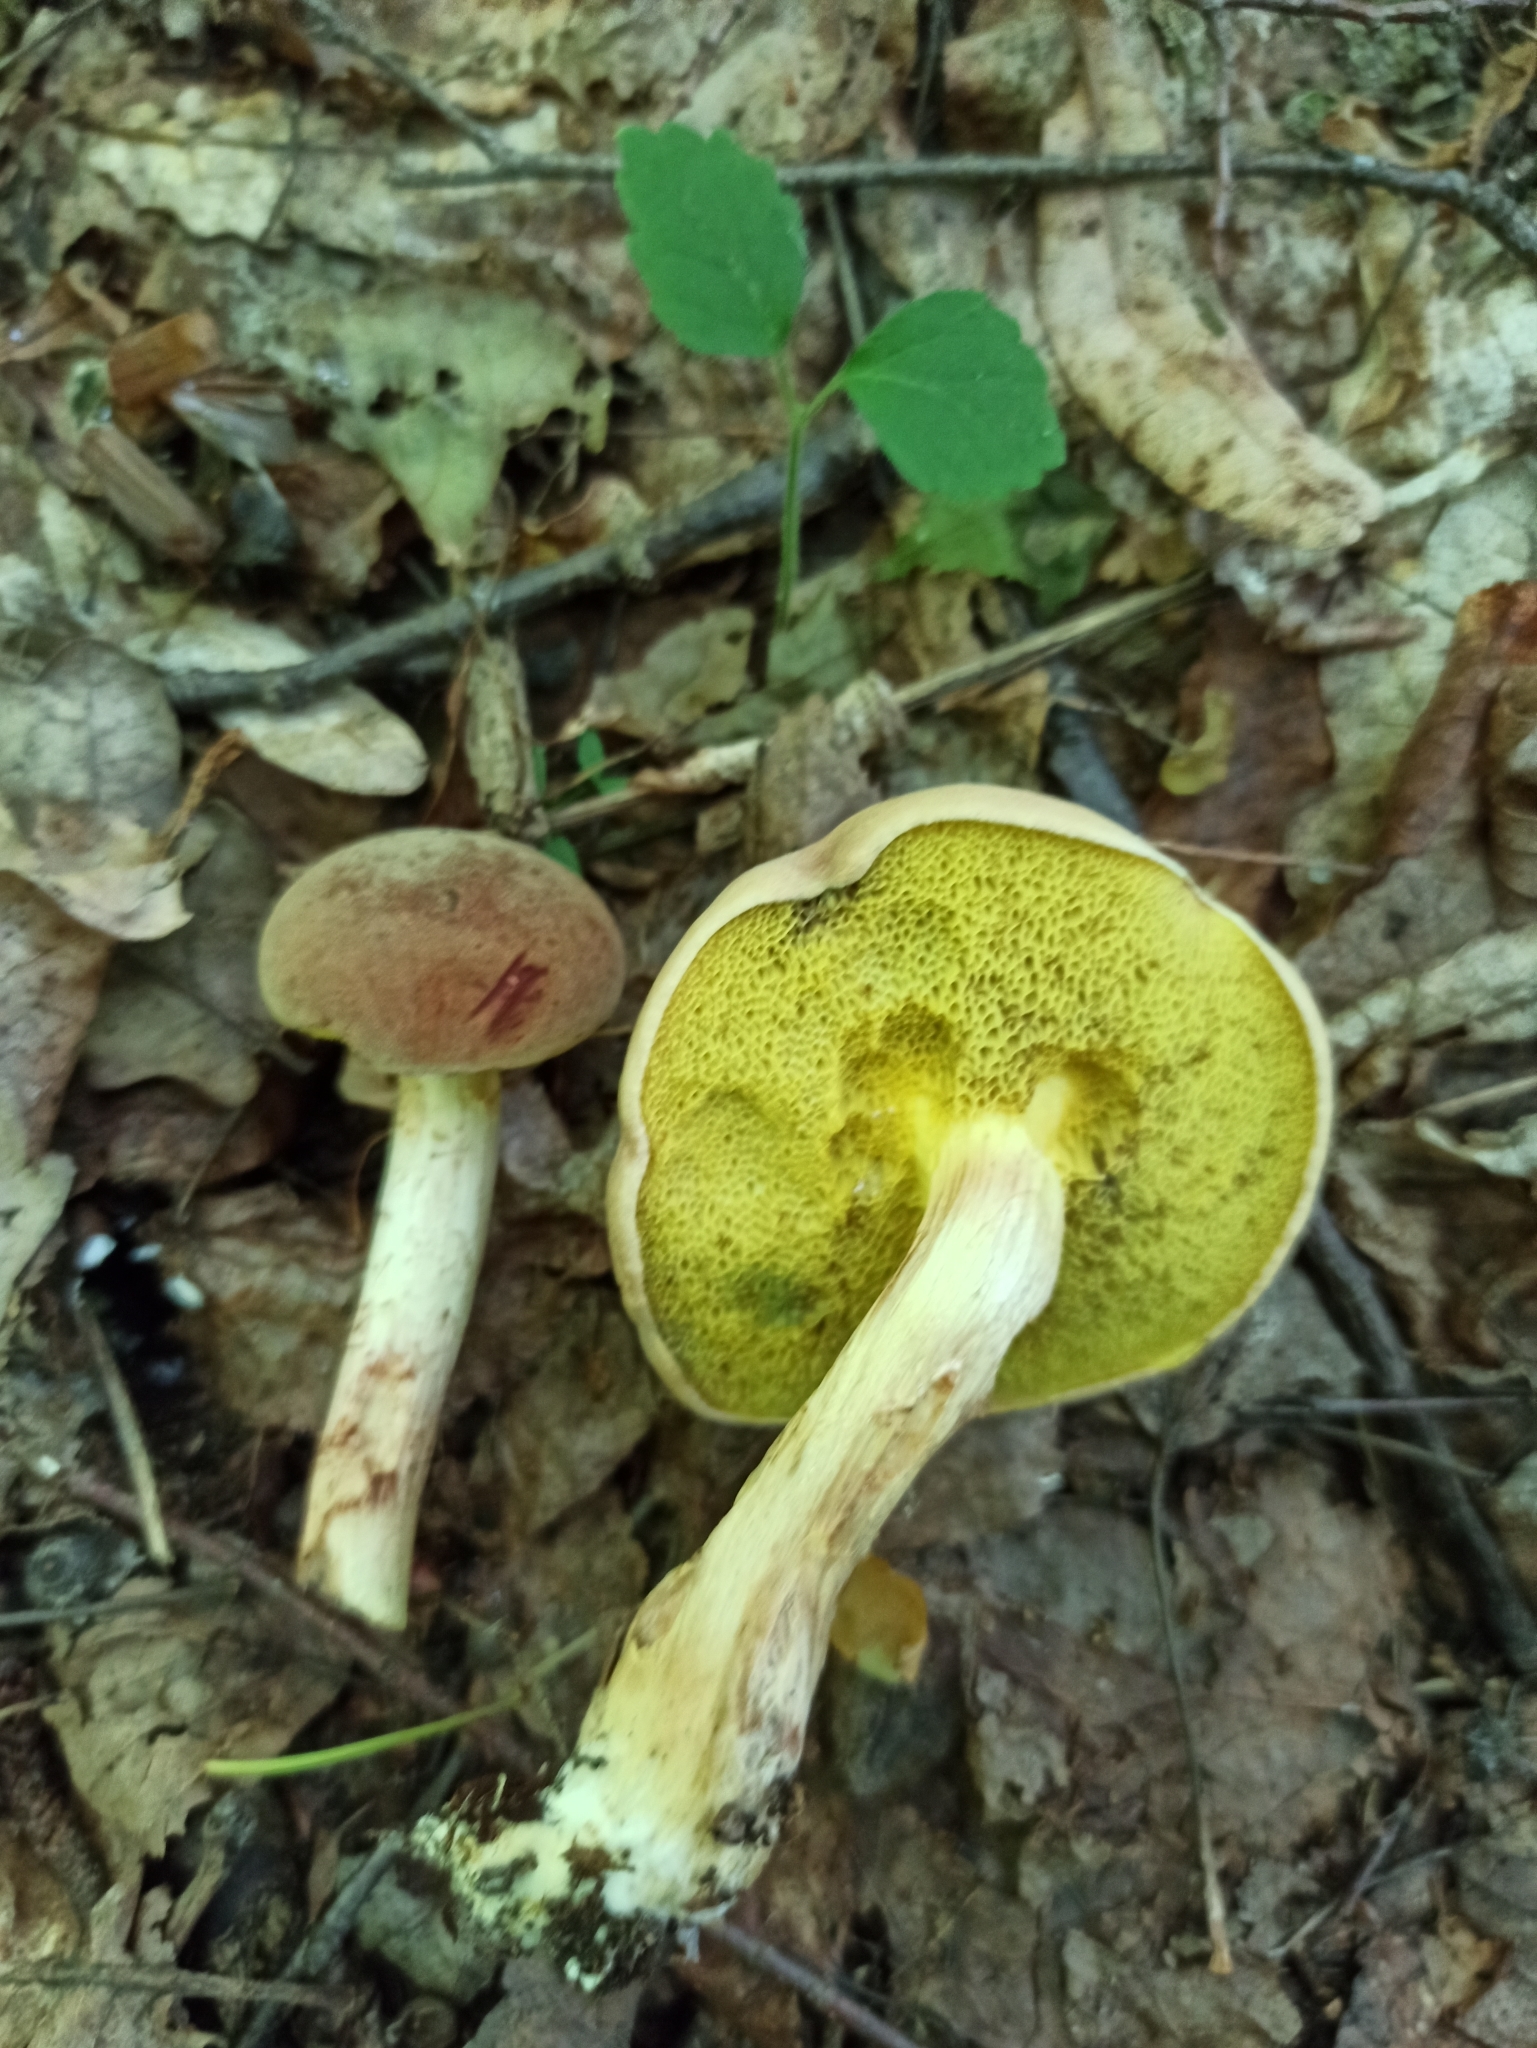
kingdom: Fungi
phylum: Basidiomycota
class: Agaricomycetes
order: Boletales
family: Boletaceae
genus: Xerocomus
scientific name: Xerocomus subtomentosus
